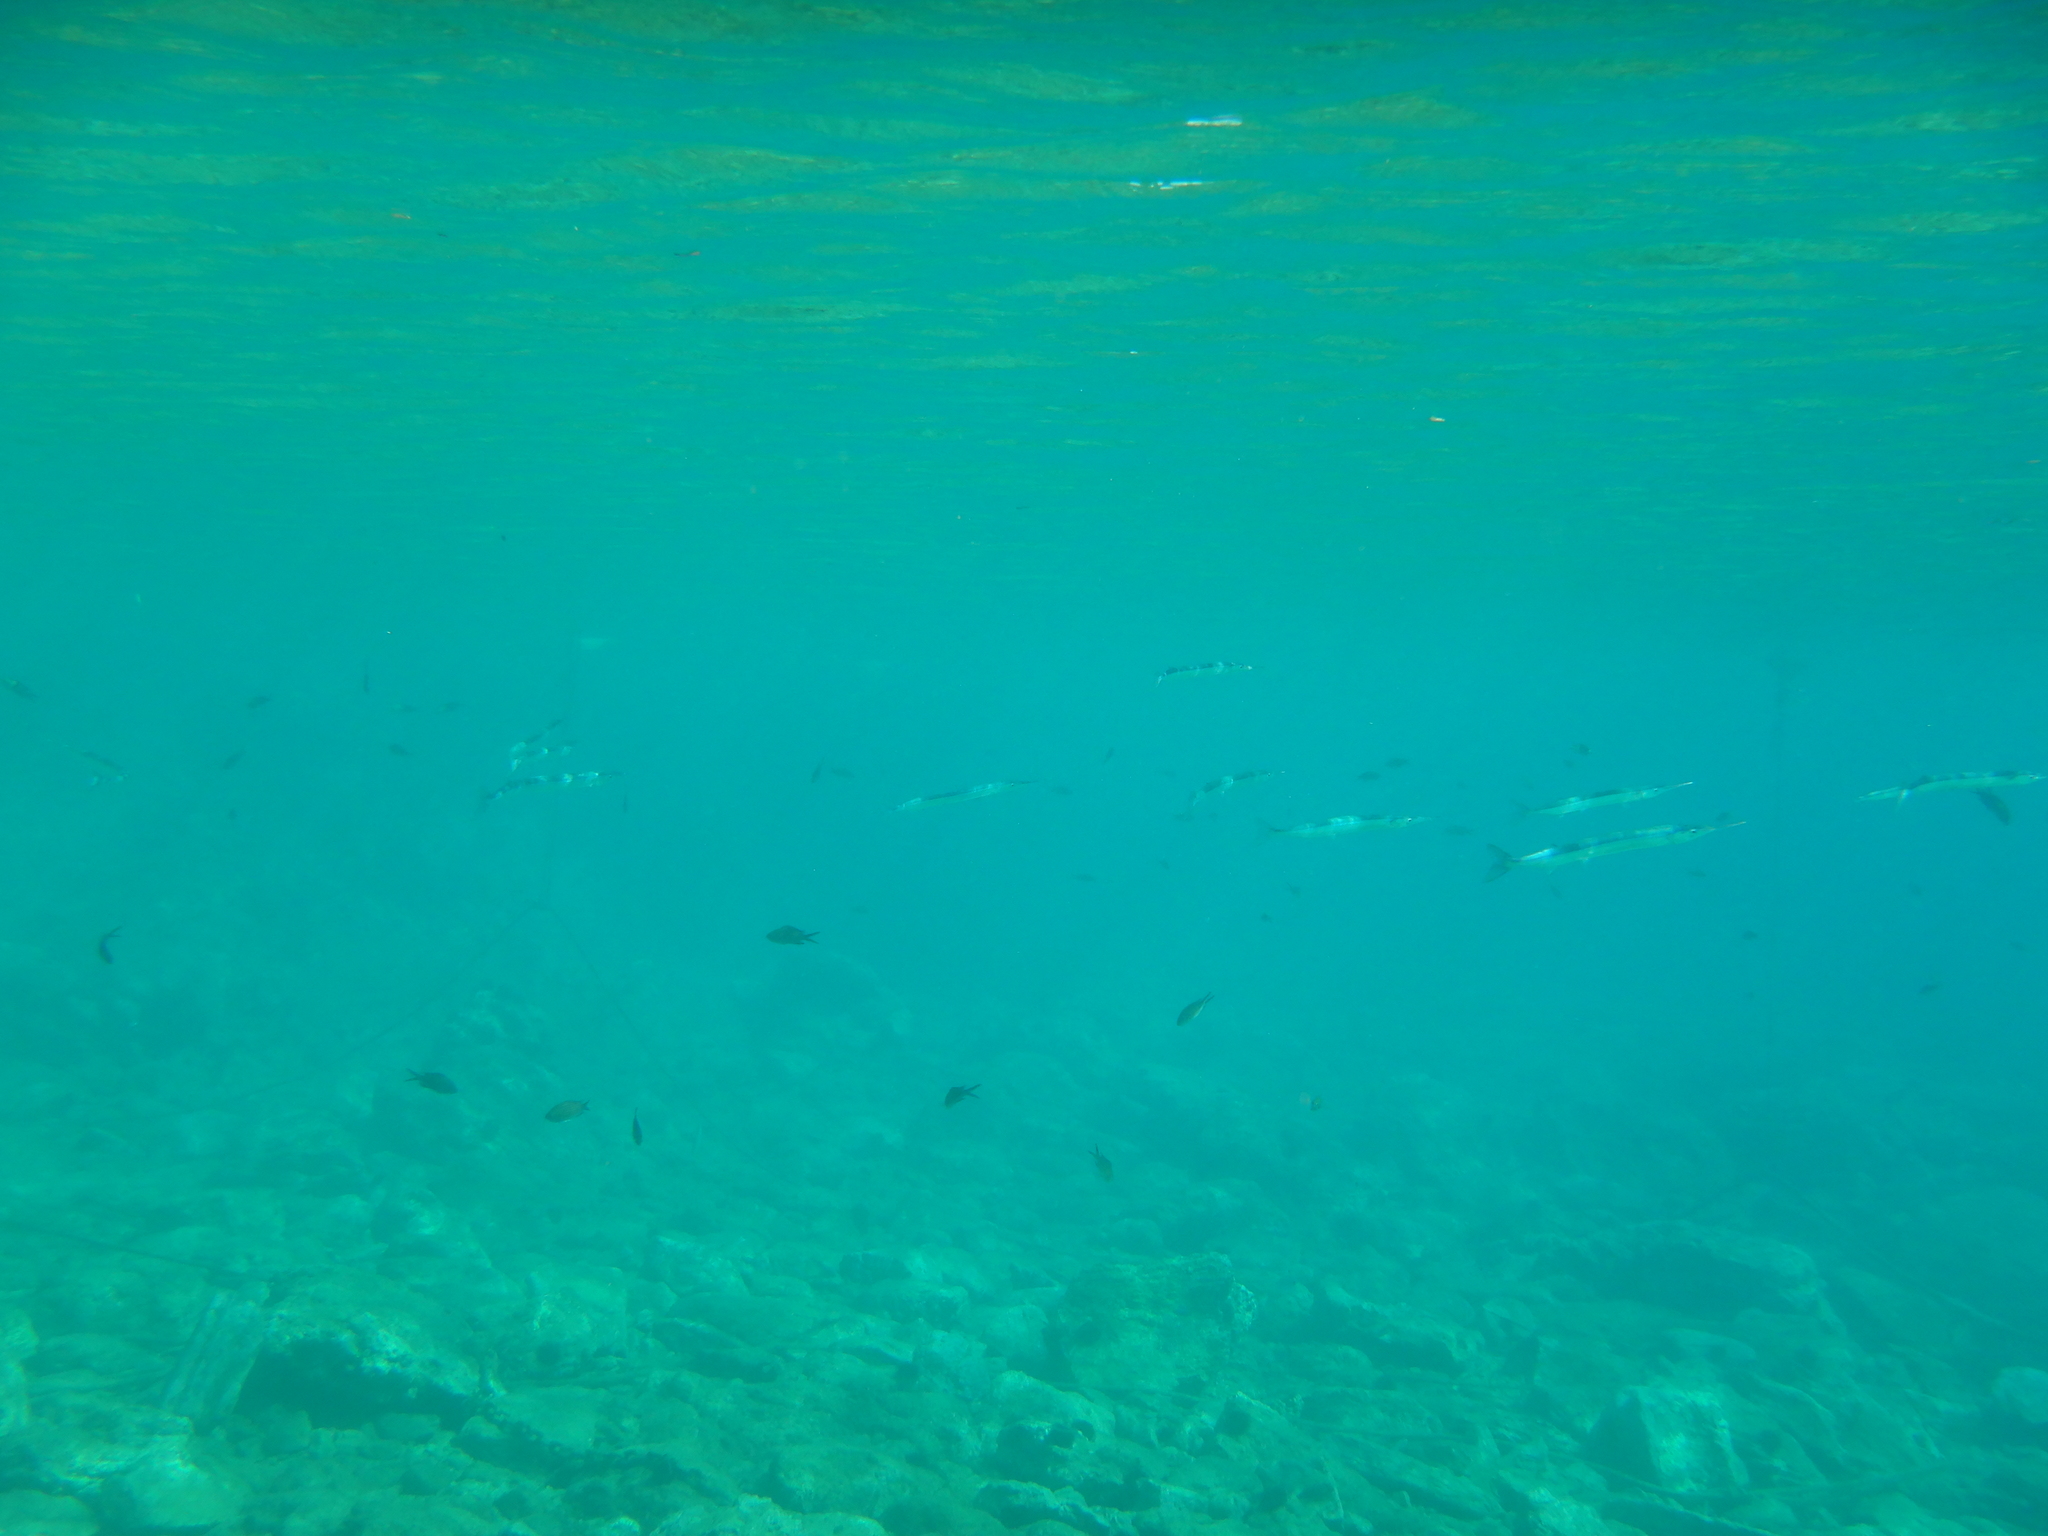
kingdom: Animalia
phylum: Chordata
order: Beloniformes
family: Belonidae
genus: Belone
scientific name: Belone belone
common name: Garfish
